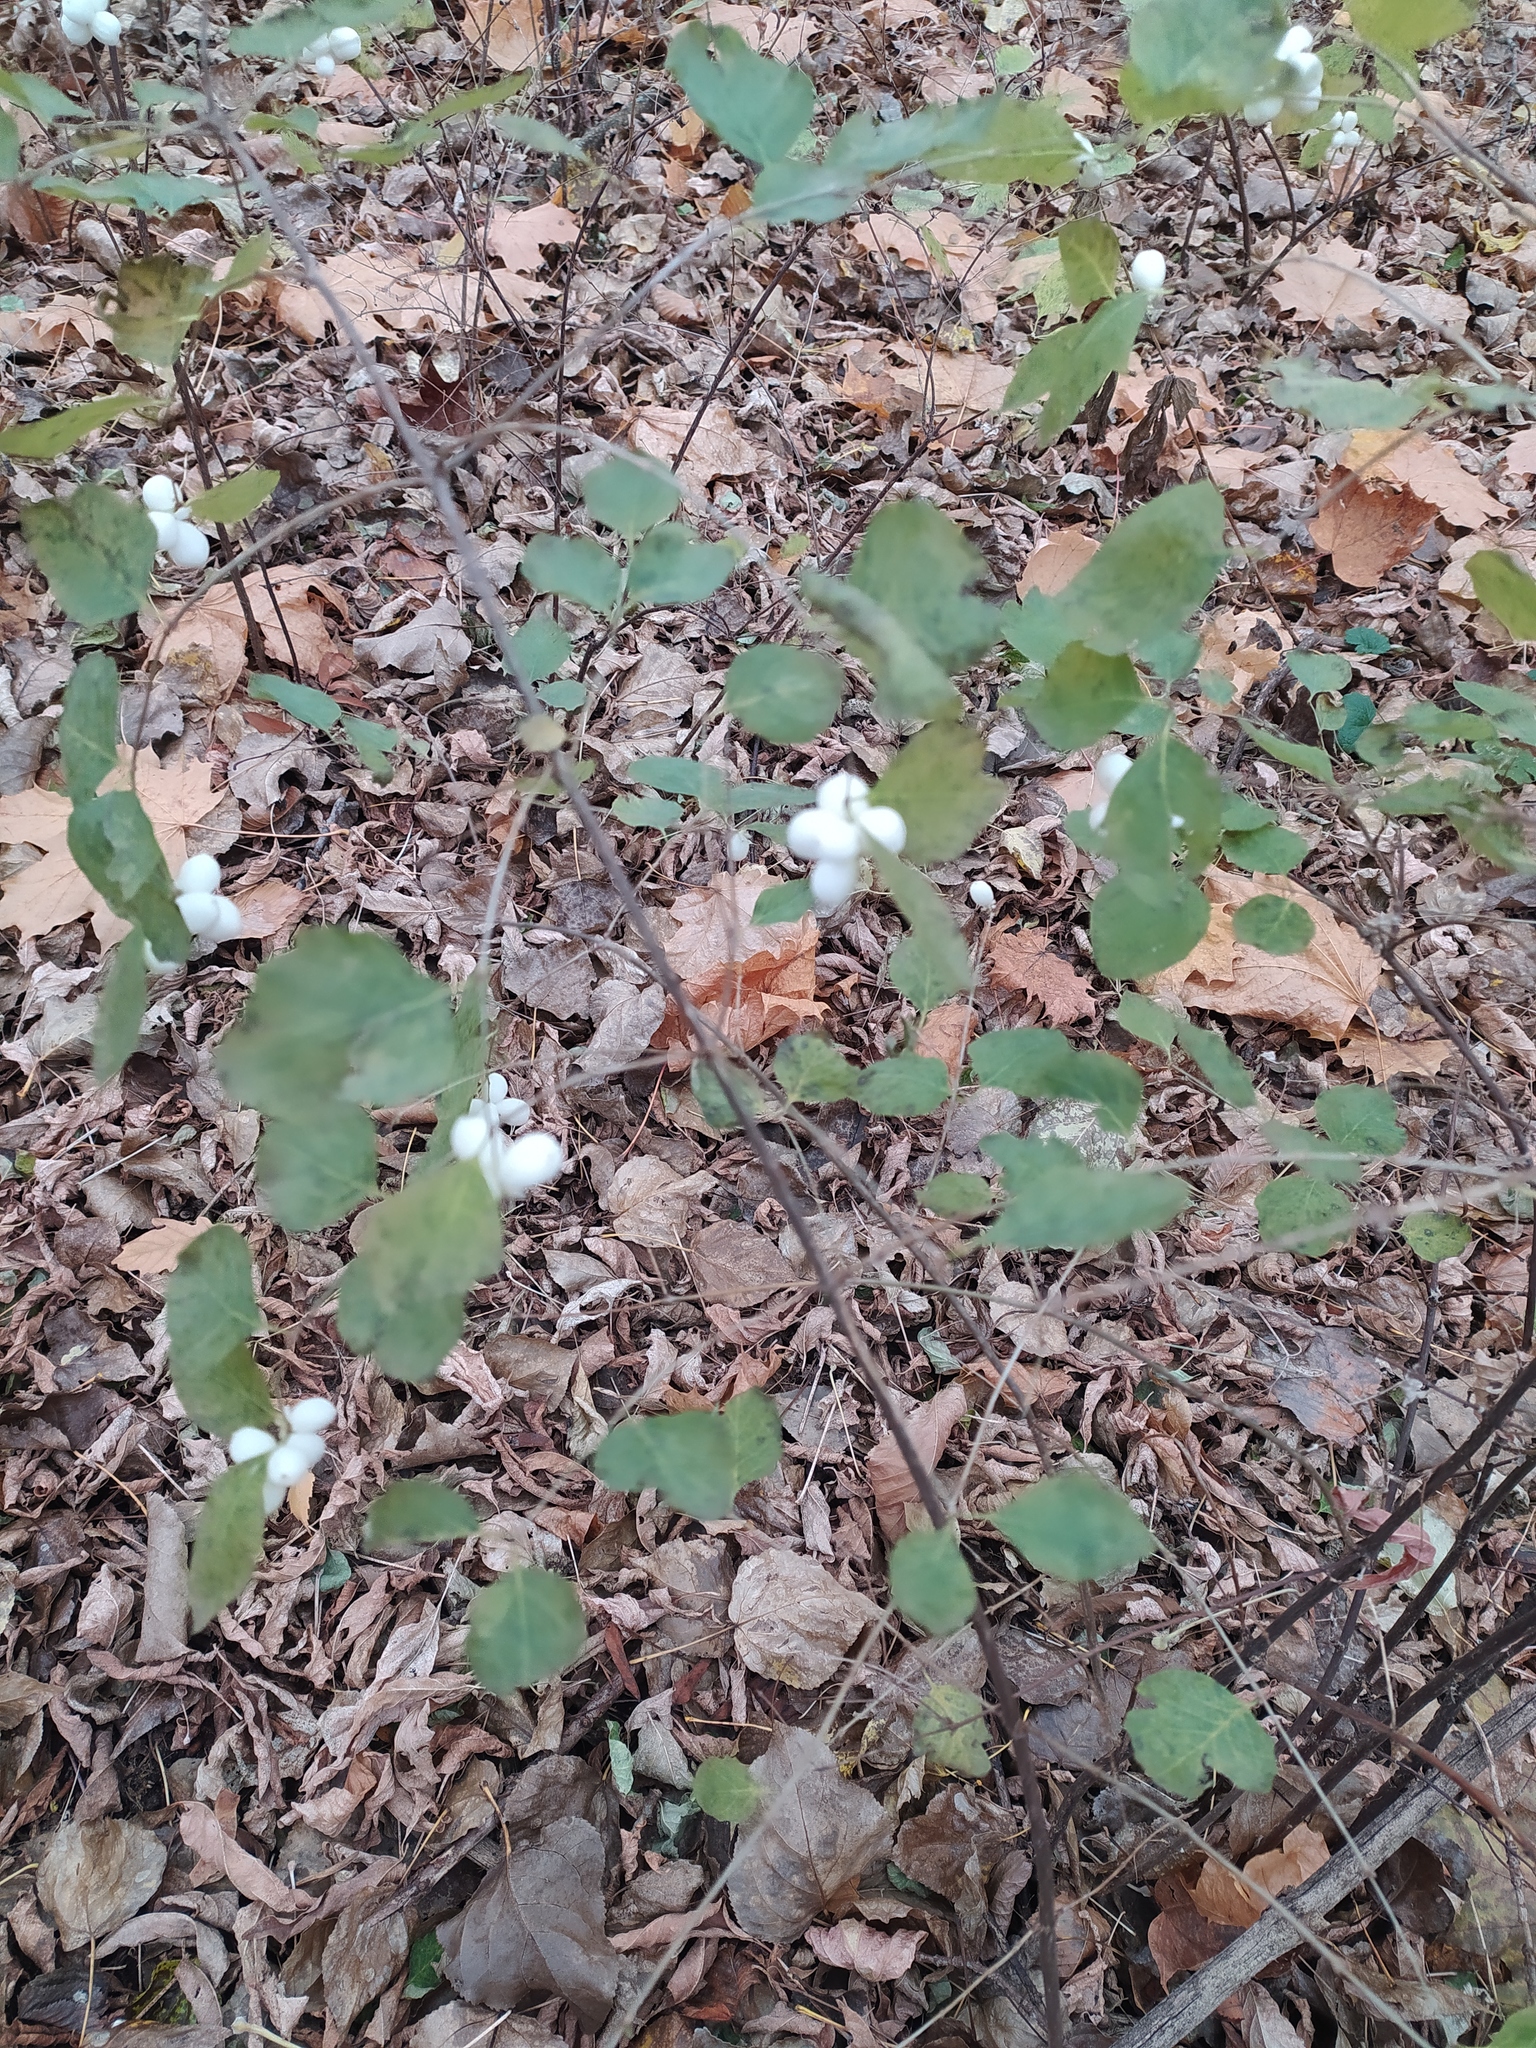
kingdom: Plantae
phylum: Tracheophyta
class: Magnoliopsida
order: Dipsacales
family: Caprifoliaceae
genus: Symphoricarpos
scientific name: Symphoricarpos albus
